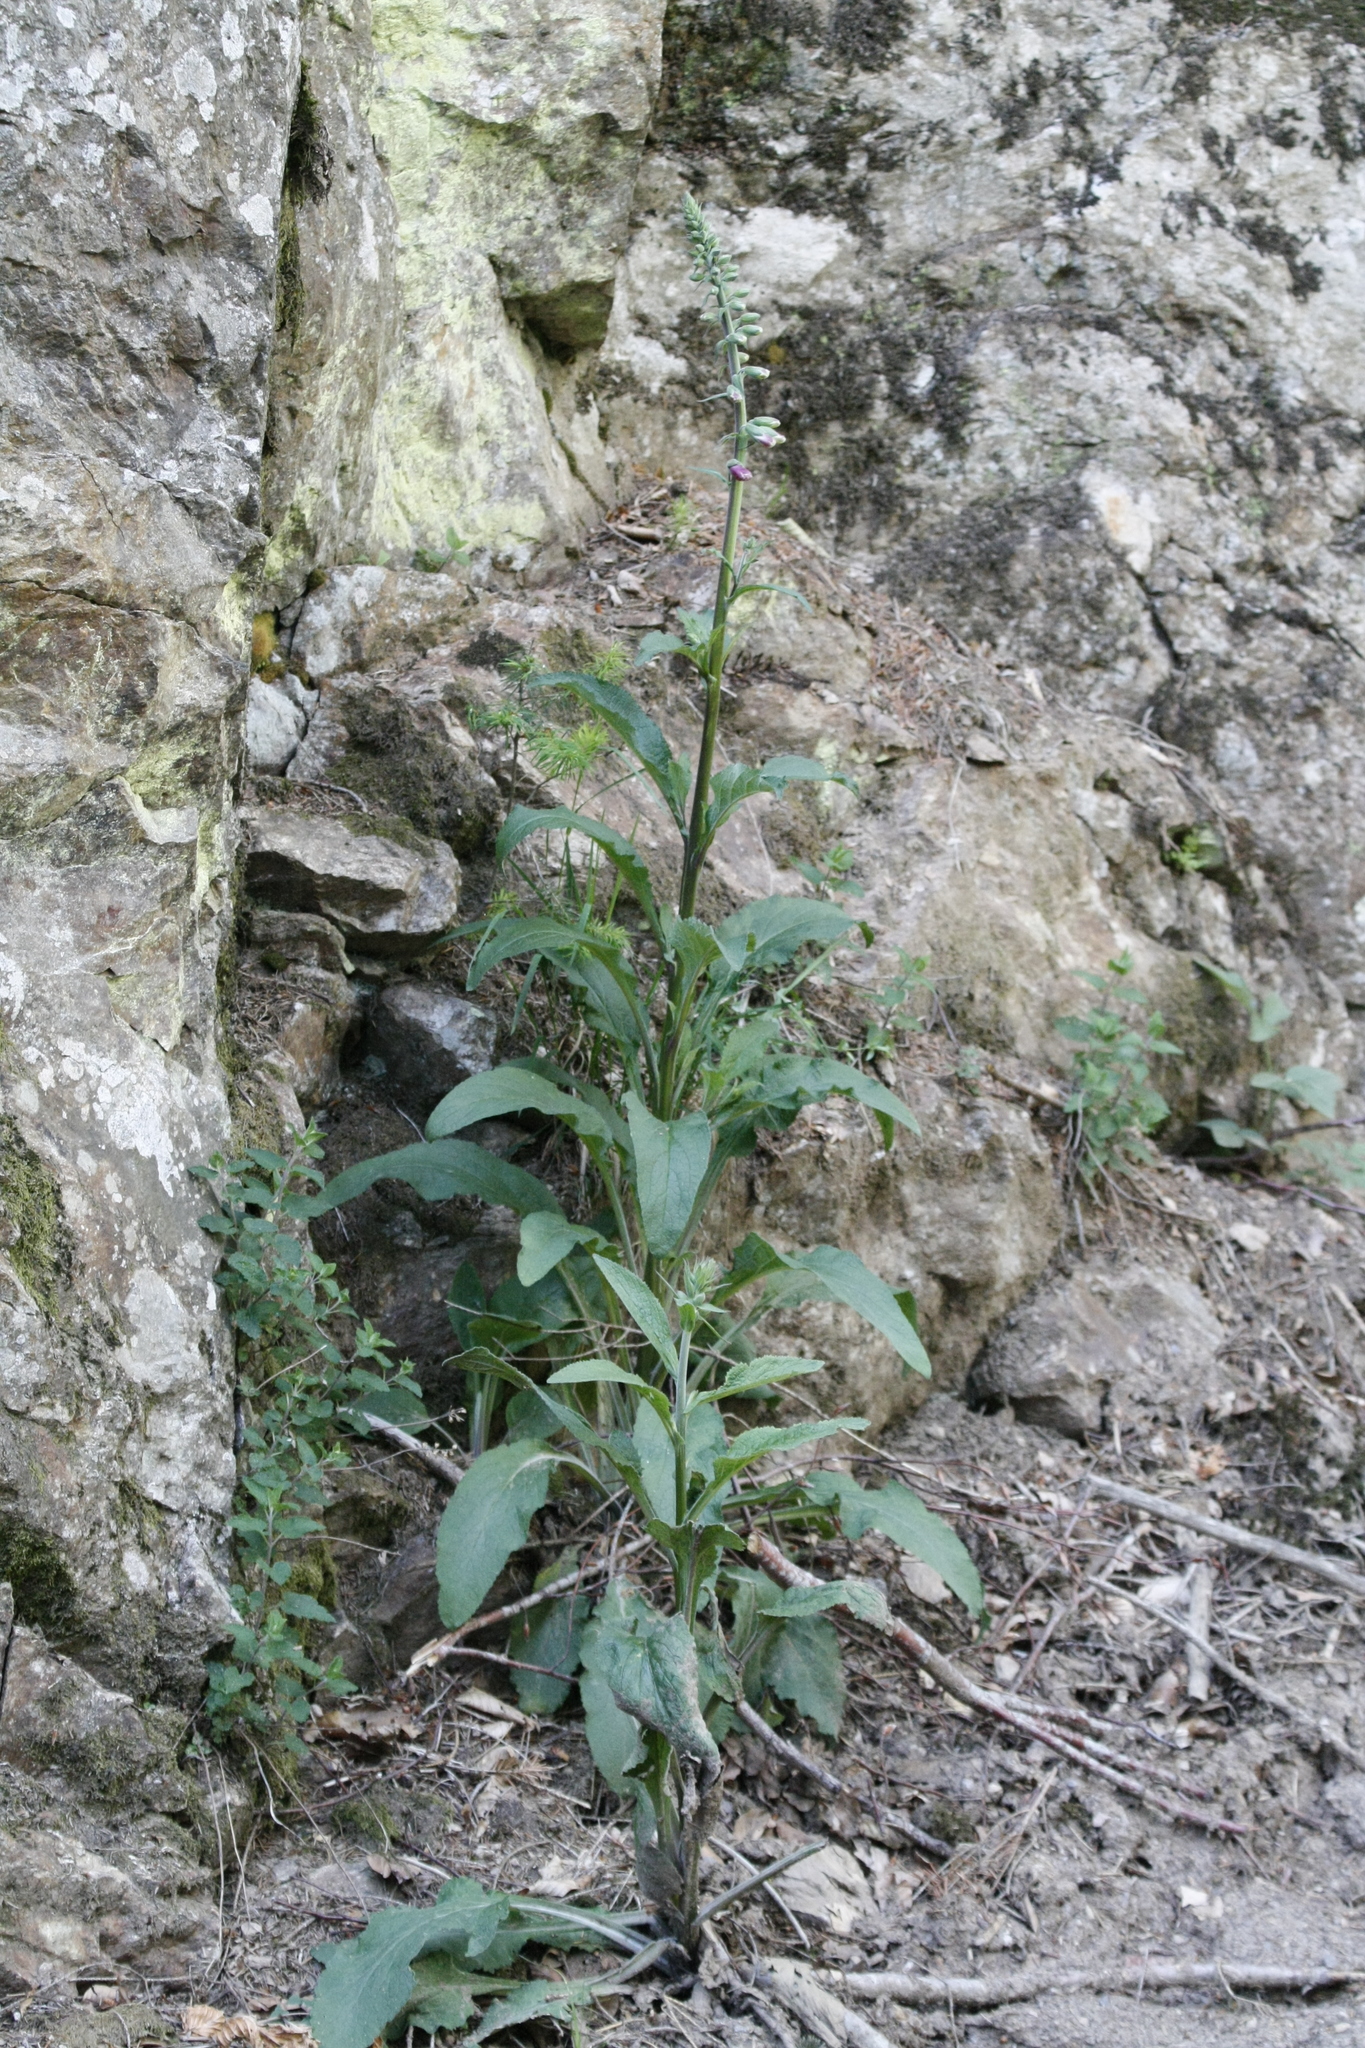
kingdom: Plantae
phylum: Tracheophyta
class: Magnoliopsida
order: Lamiales
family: Plantaginaceae
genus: Digitalis
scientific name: Digitalis purpurea
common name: Foxglove
